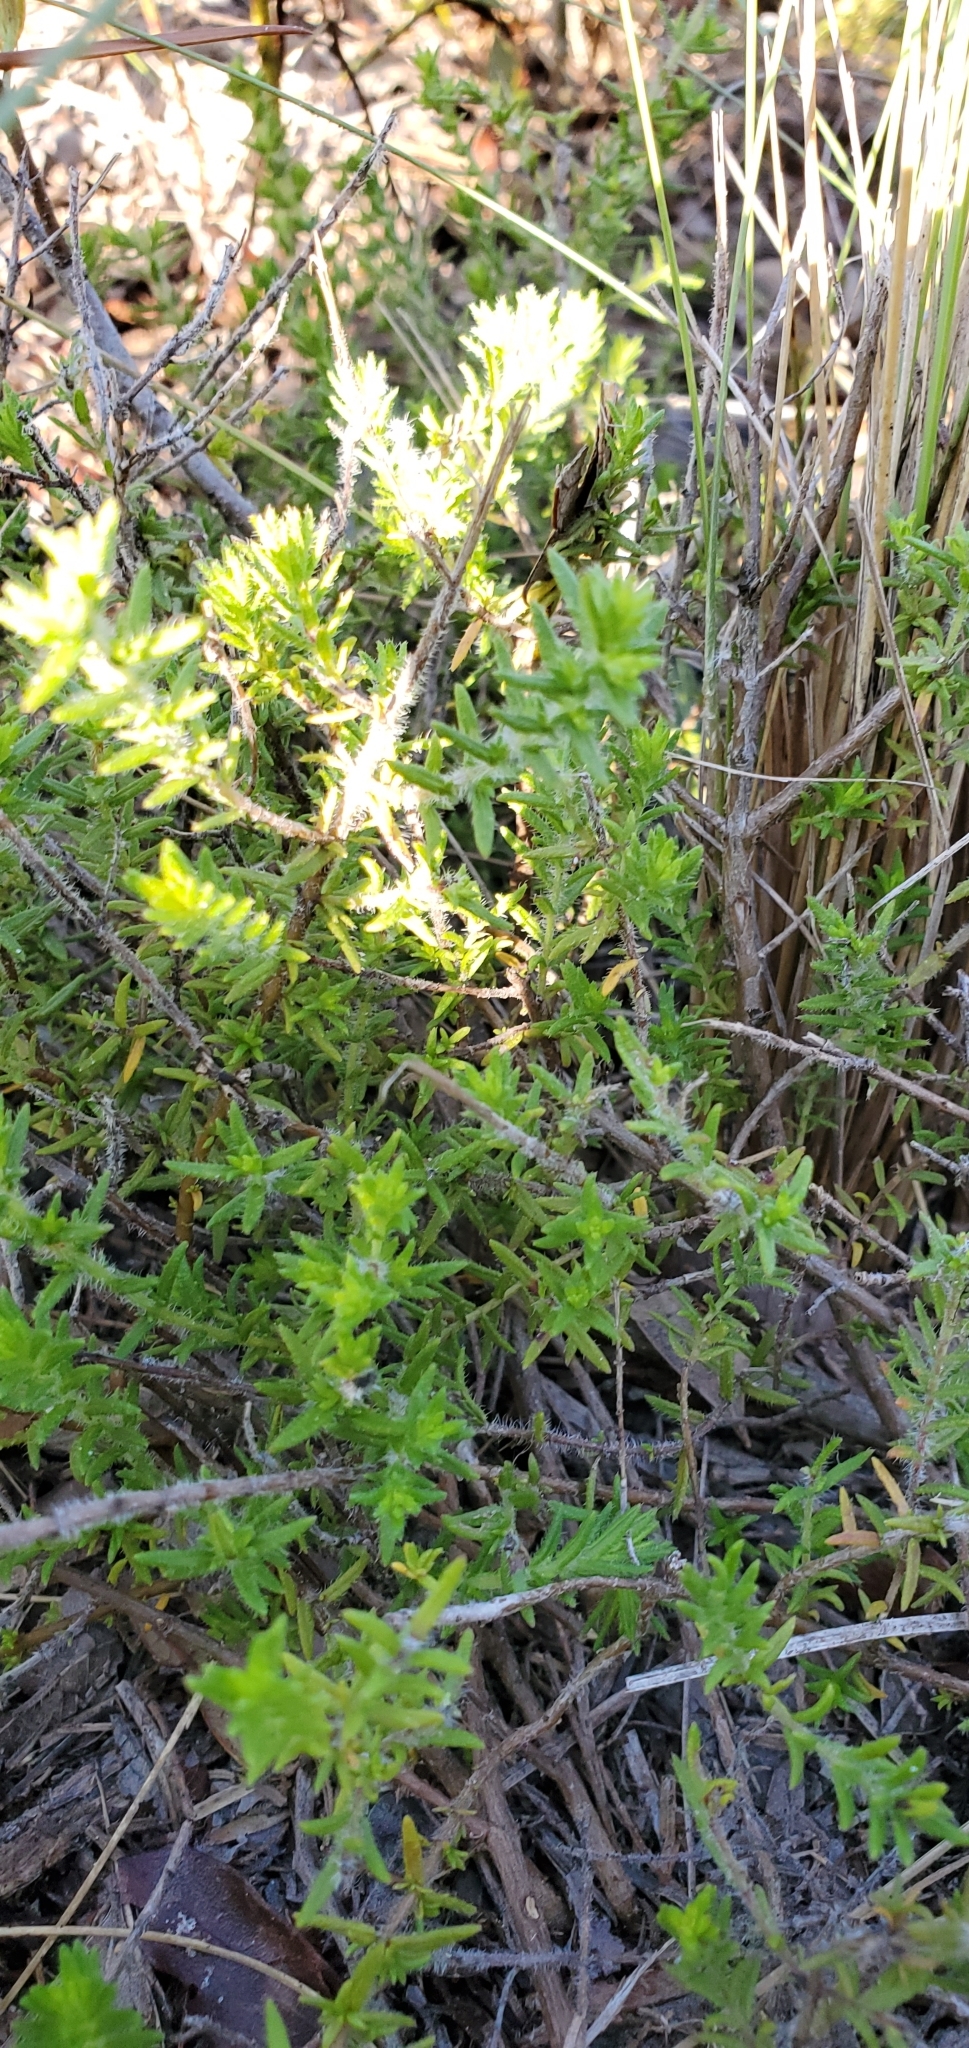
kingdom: Plantae
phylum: Tracheophyta
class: Magnoliopsida
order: Lamiales
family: Lamiaceae
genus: Piloblephis
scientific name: Piloblephis rigida
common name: Wild pennyroyal
